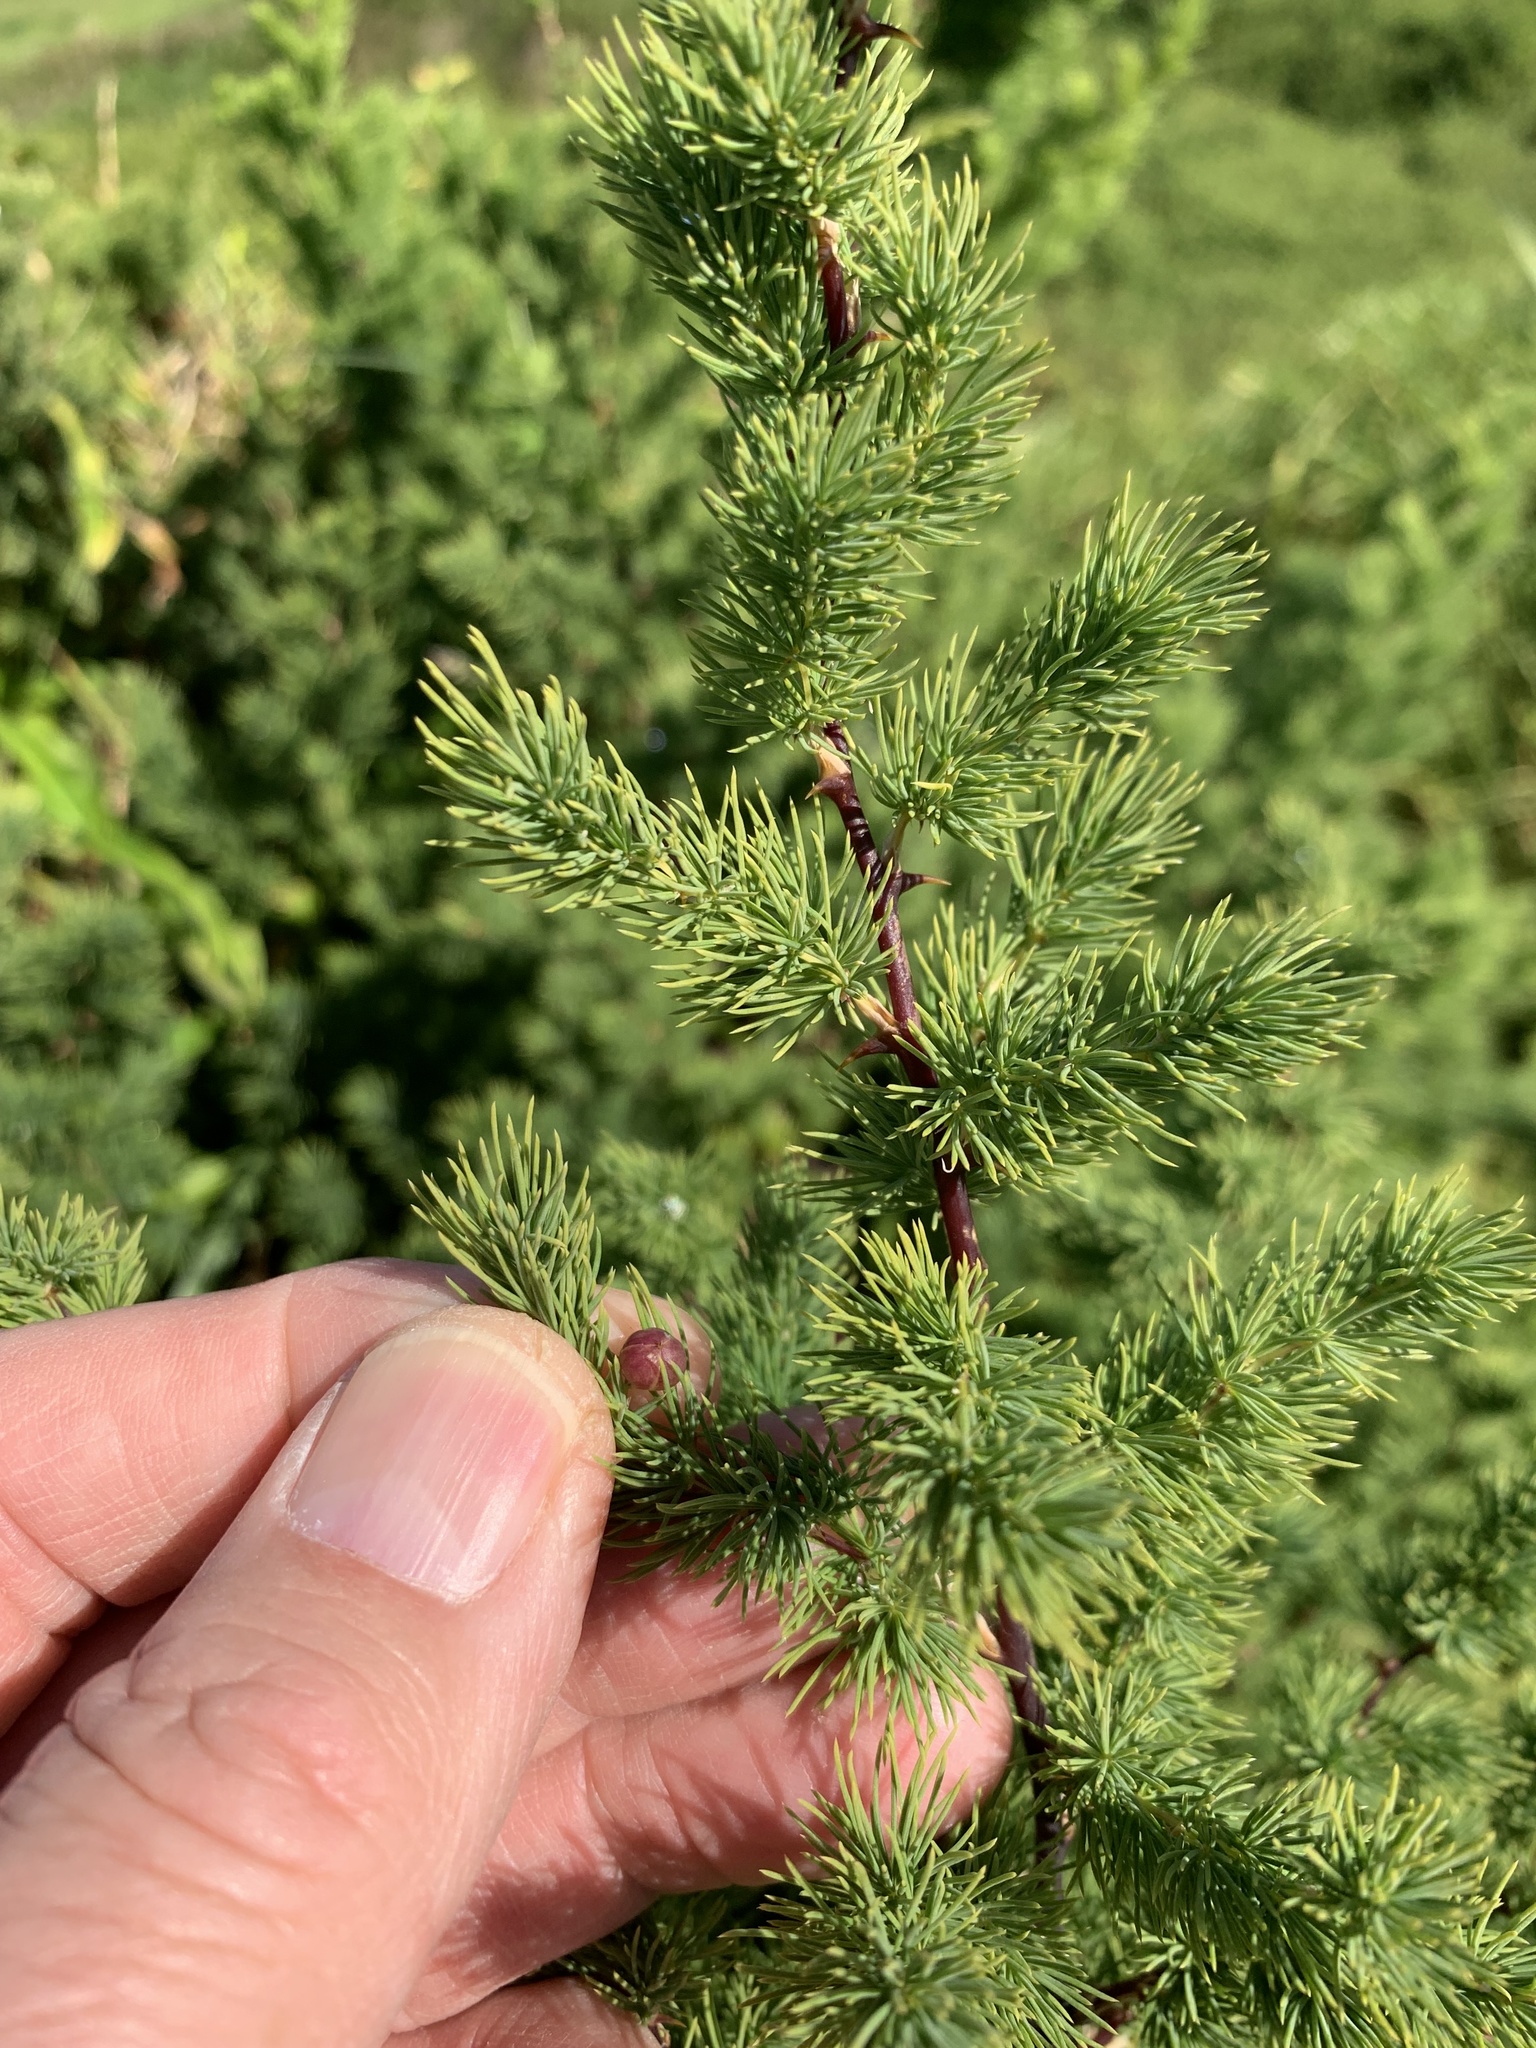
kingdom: Plantae
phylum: Tracheophyta
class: Liliopsida
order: Asparagales
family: Asparagaceae
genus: Asparagus
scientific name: Asparagus rubicundus
